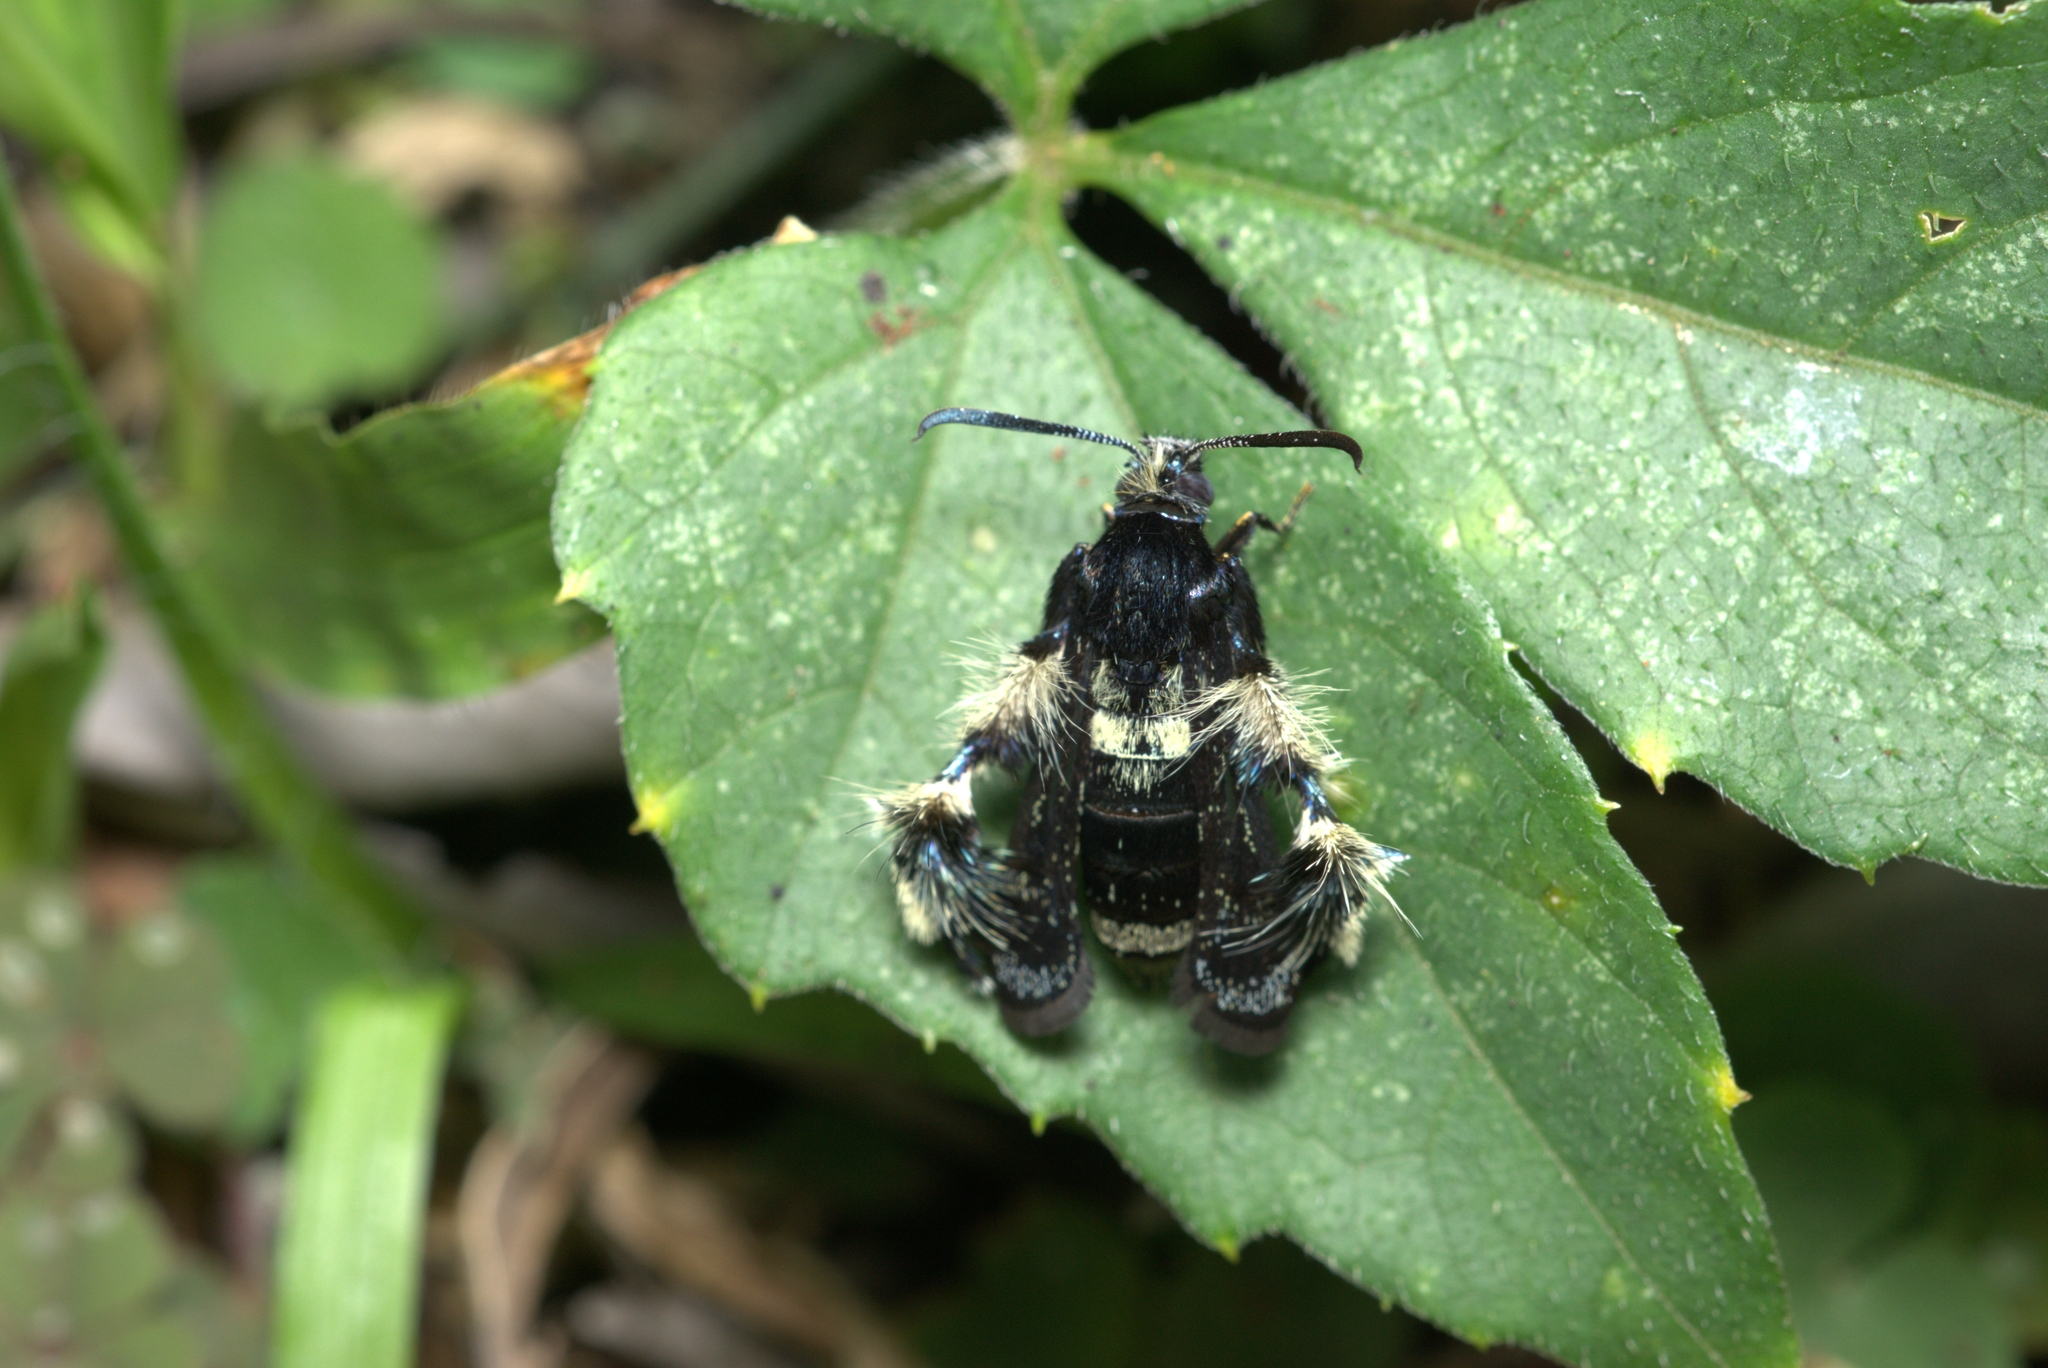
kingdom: Animalia
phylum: Arthropoda
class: Insecta
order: Lepidoptera
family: Sesiidae
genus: Melittia
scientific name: Melittia chimana
